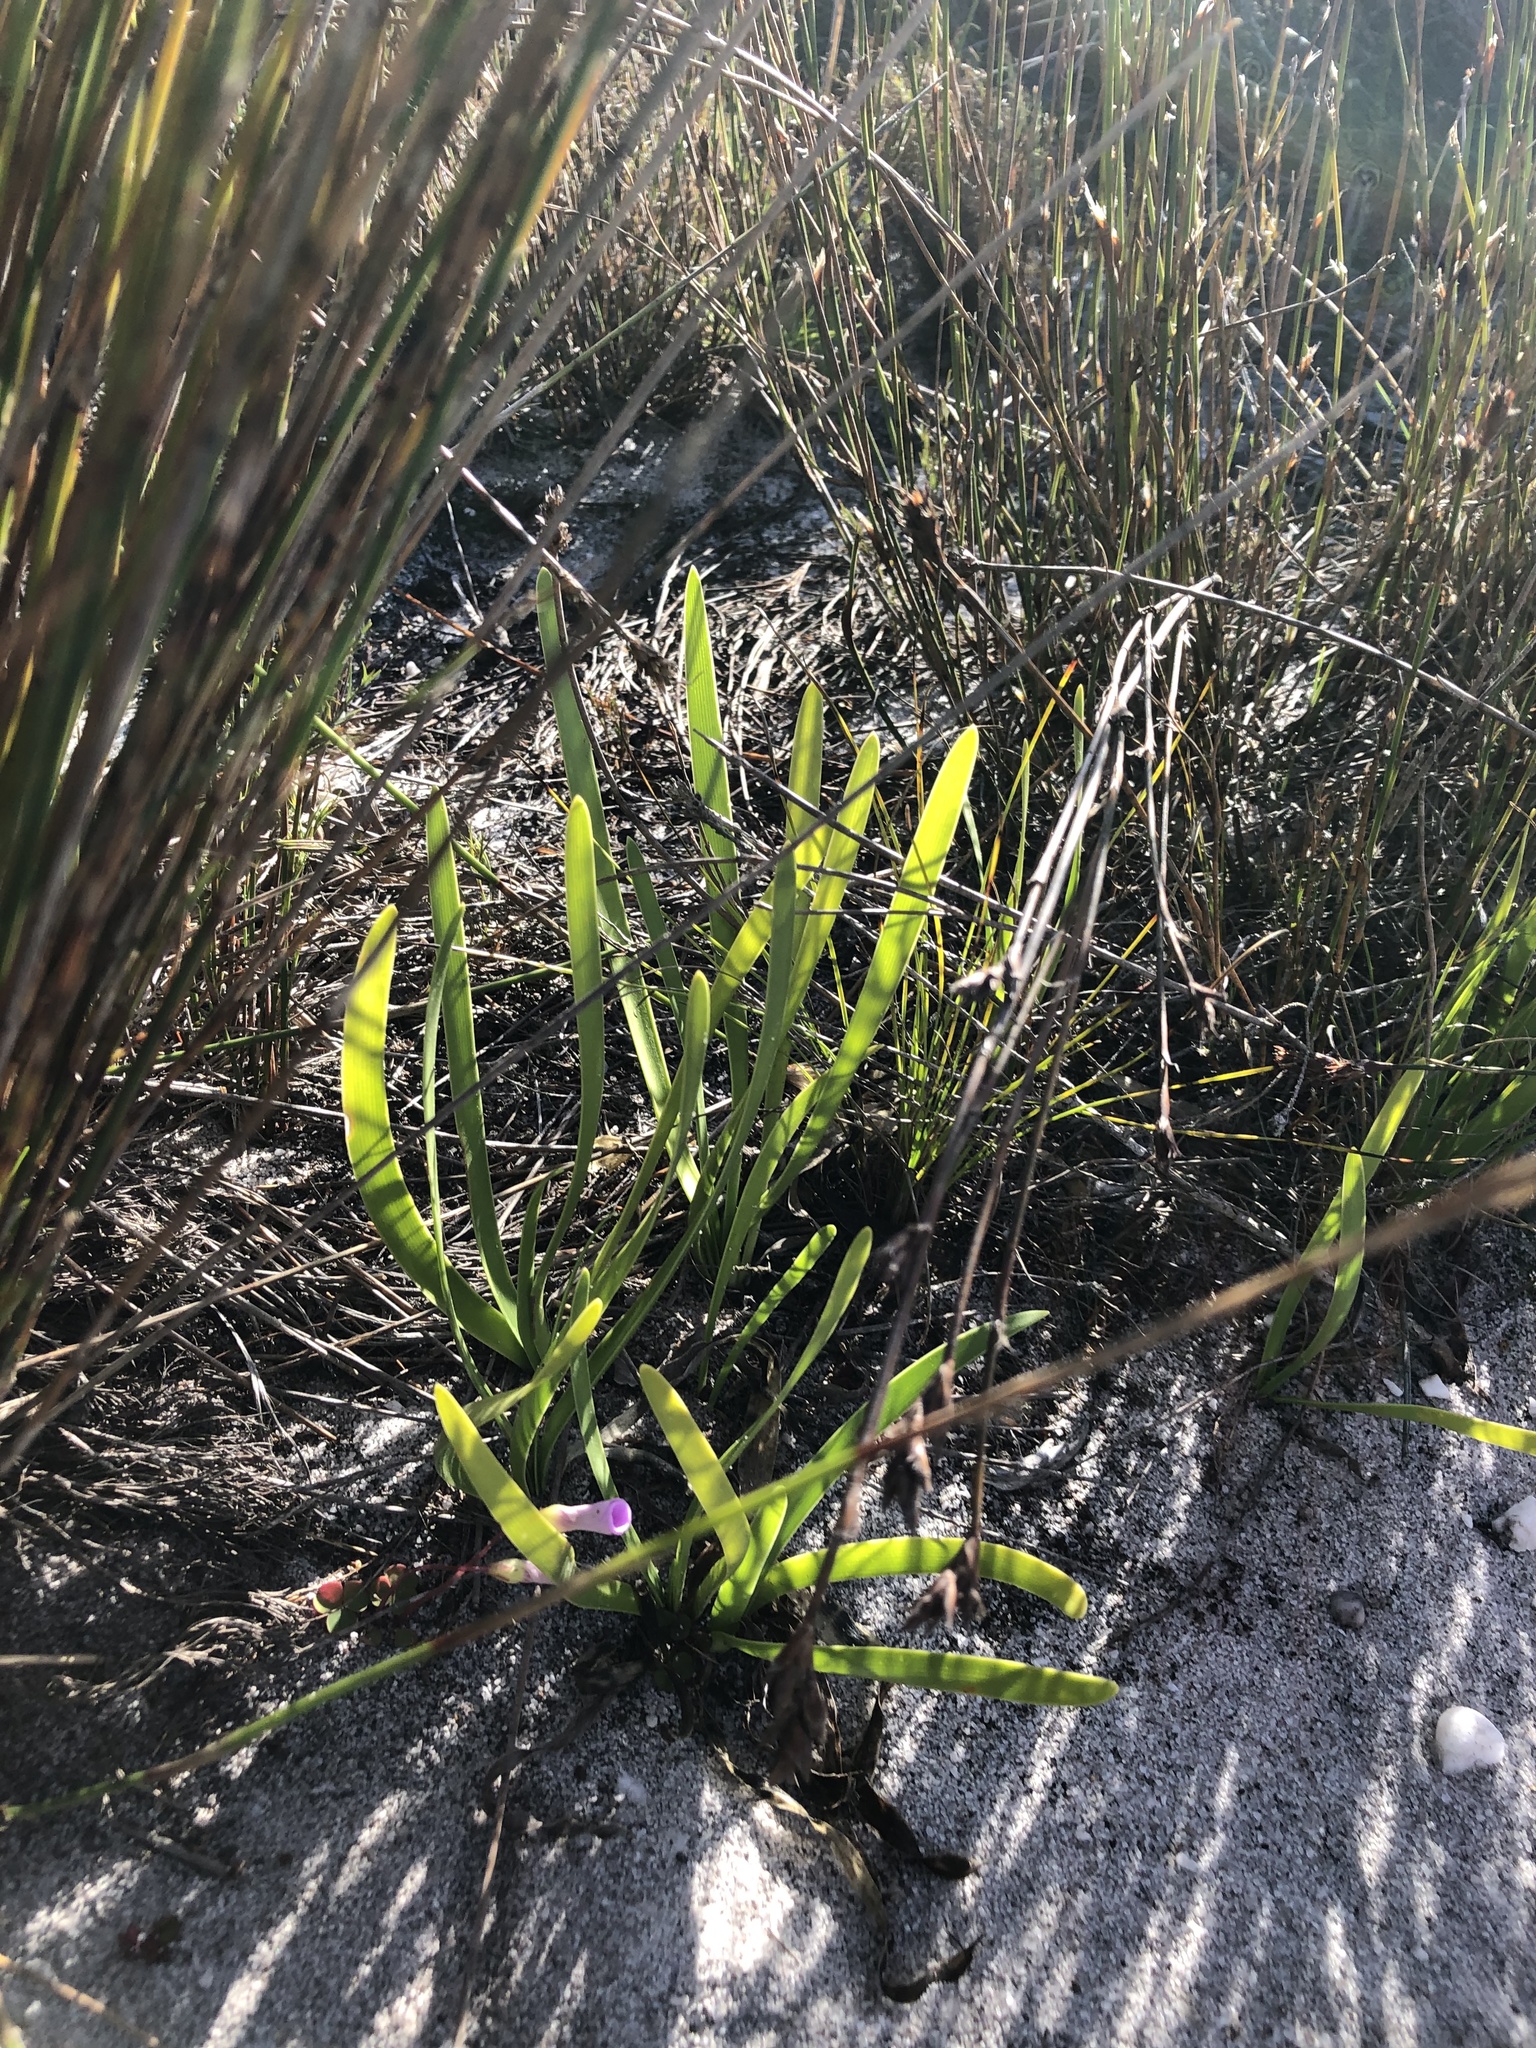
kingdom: Plantae
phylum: Tracheophyta
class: Liliopsida
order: Asparagales
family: Amaryllidaceae
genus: Agapanthus
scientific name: Agapanthus africanus
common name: Lily-of-the-nile
